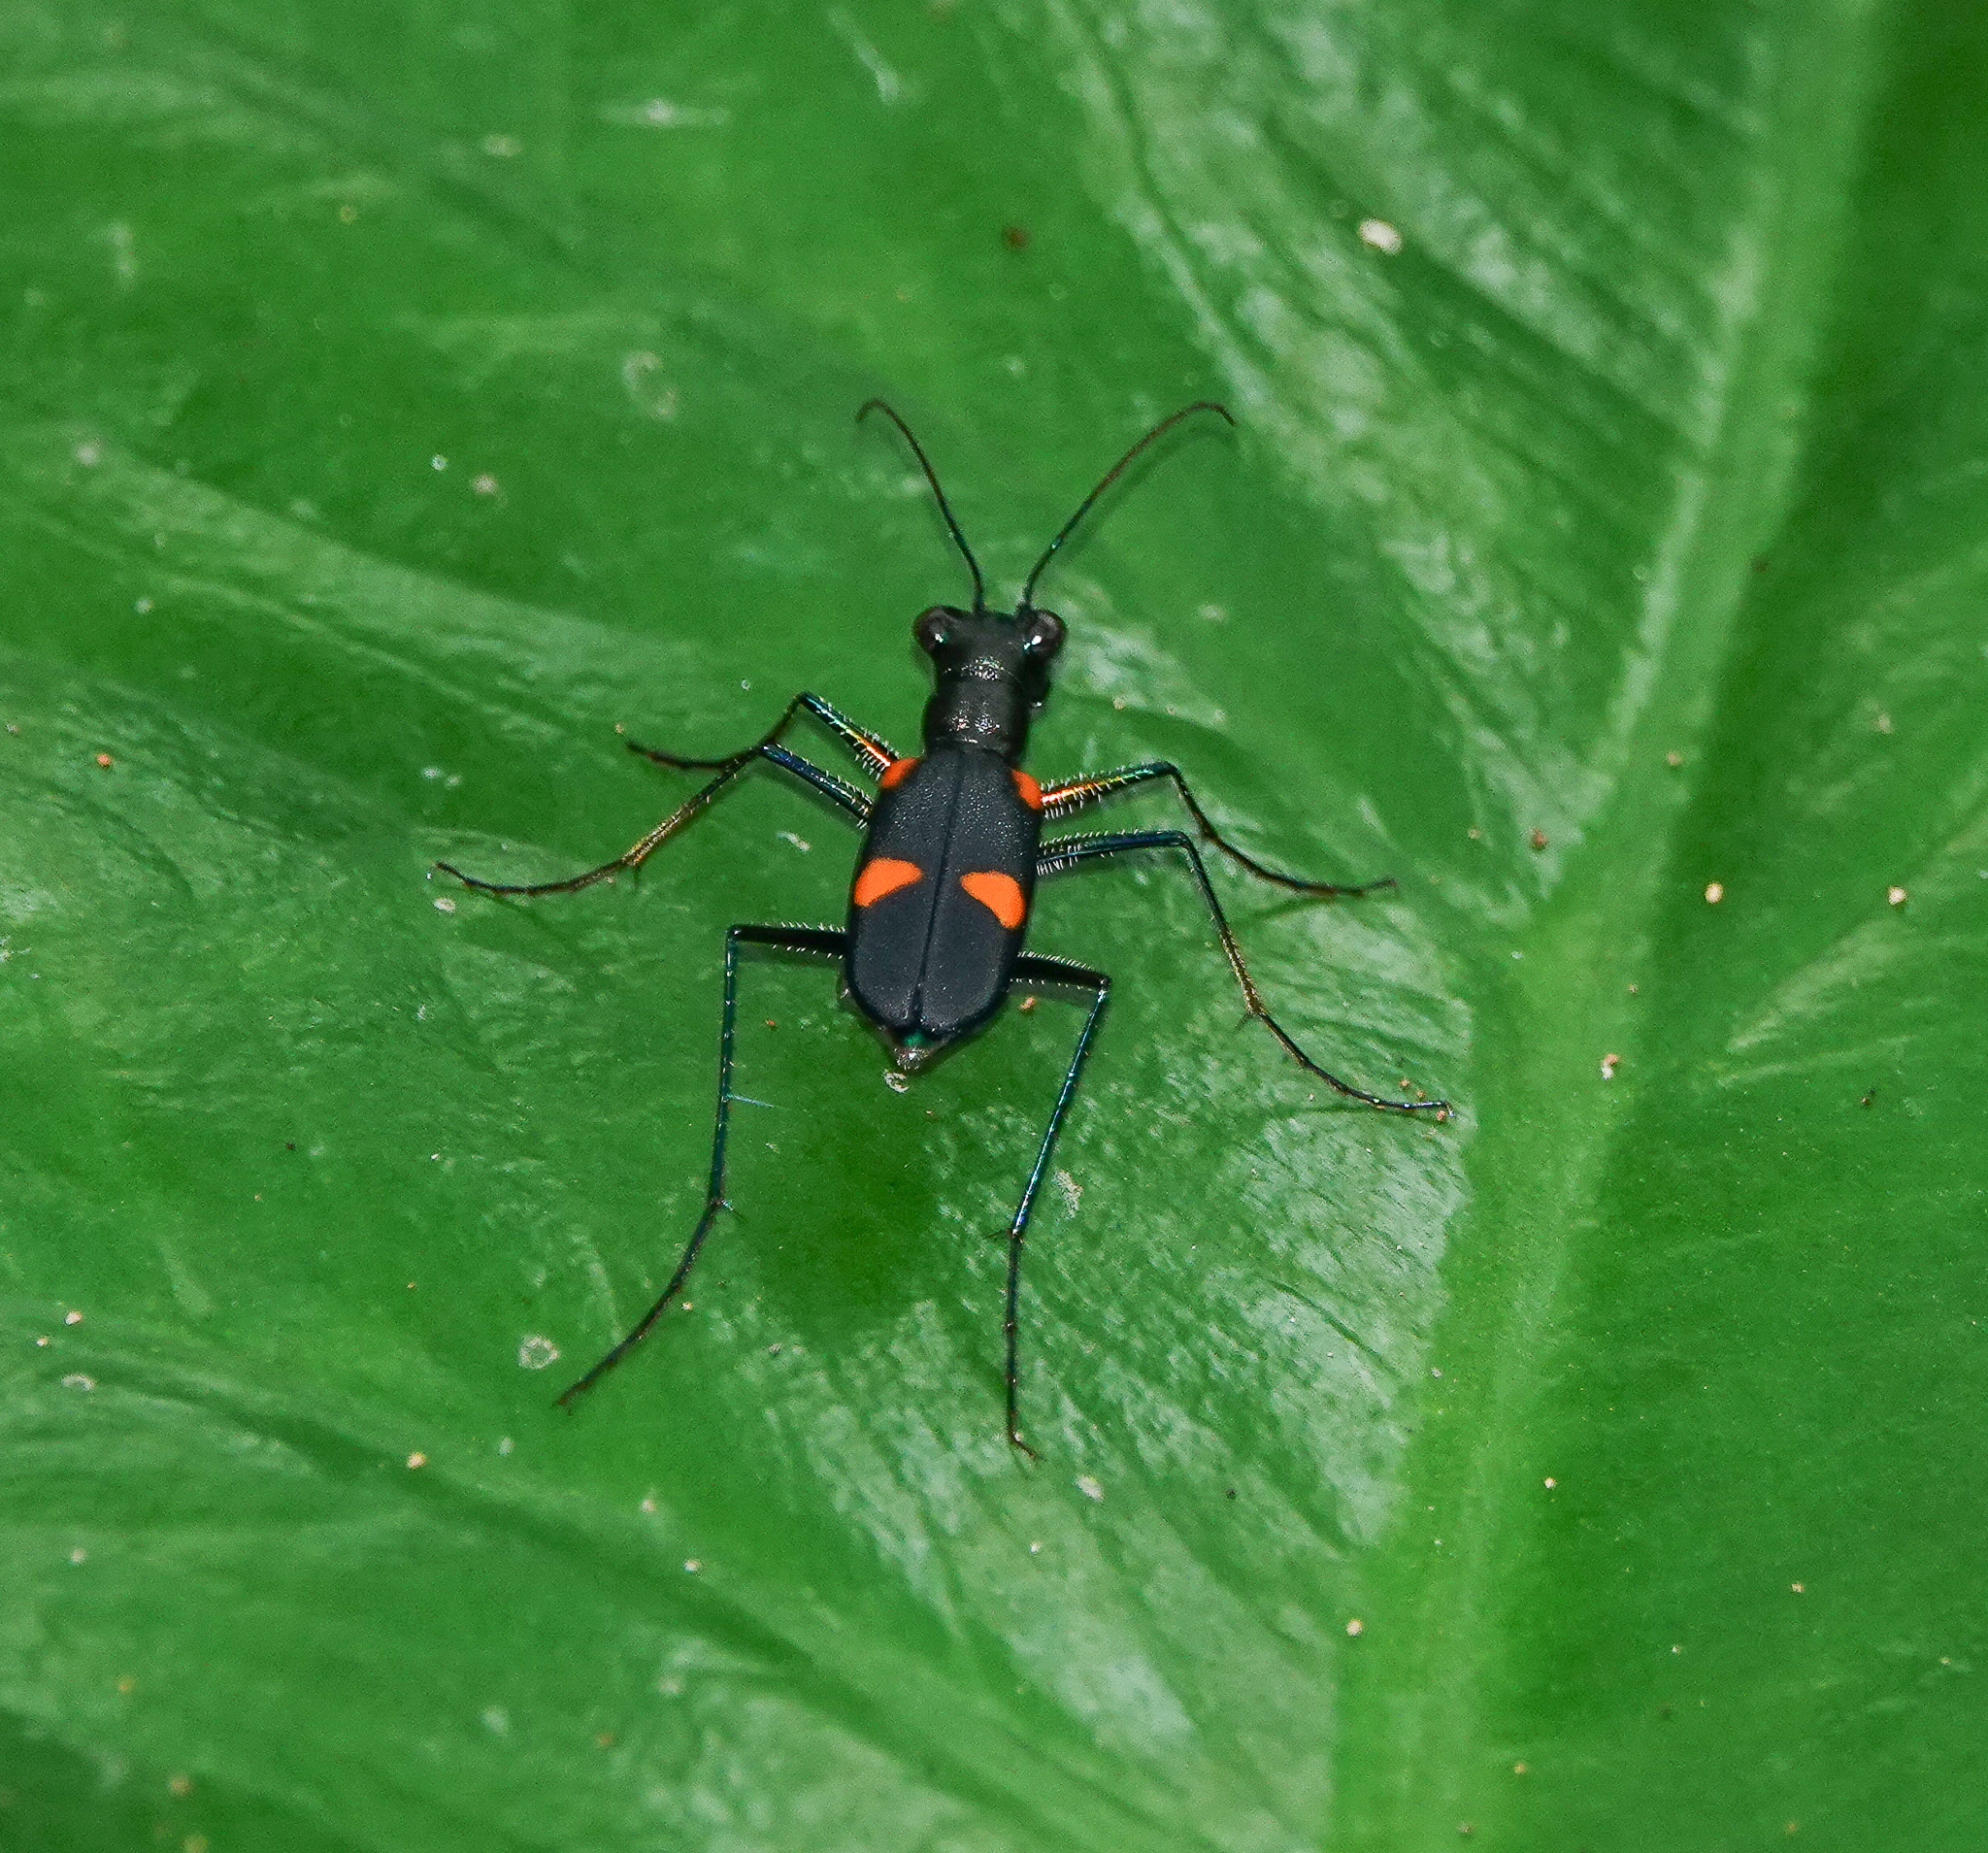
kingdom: Animalia
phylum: Arthropoda
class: Insecta
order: Coleoptera
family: Carabidae
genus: Cicindela
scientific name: Cicindela assamensis
